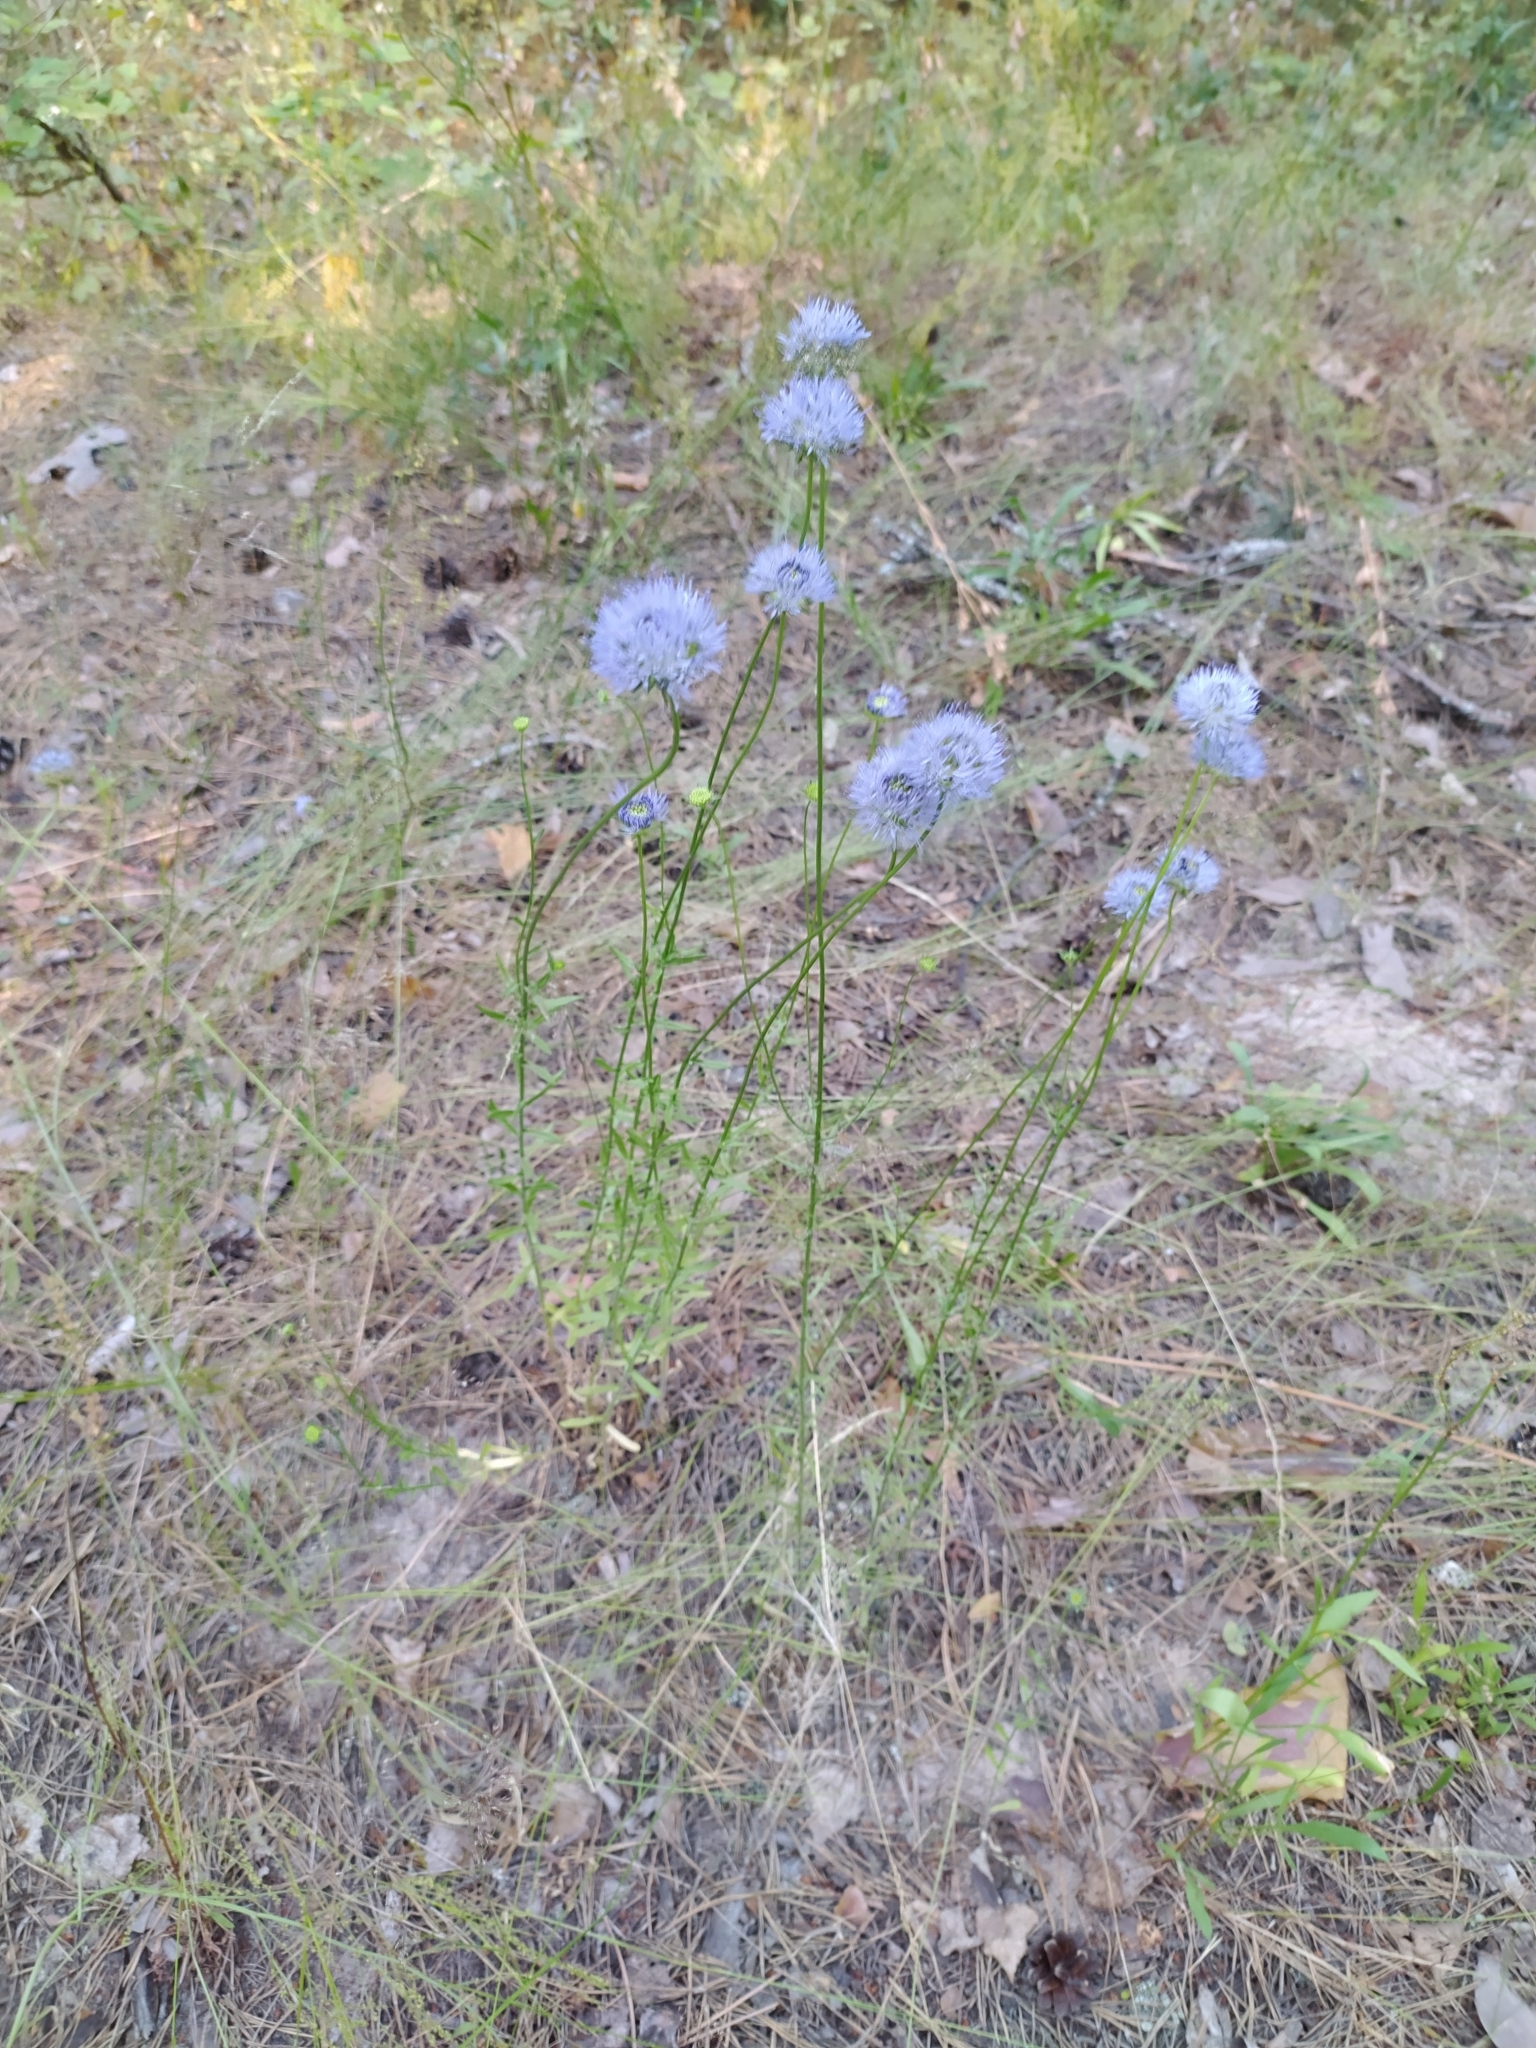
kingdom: Plantae
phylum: Tracheophyta
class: Magnoliopsida
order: Asterales
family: Campanulaceae
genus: Jasione
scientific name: Jasione montana
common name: Sheep's-bit
